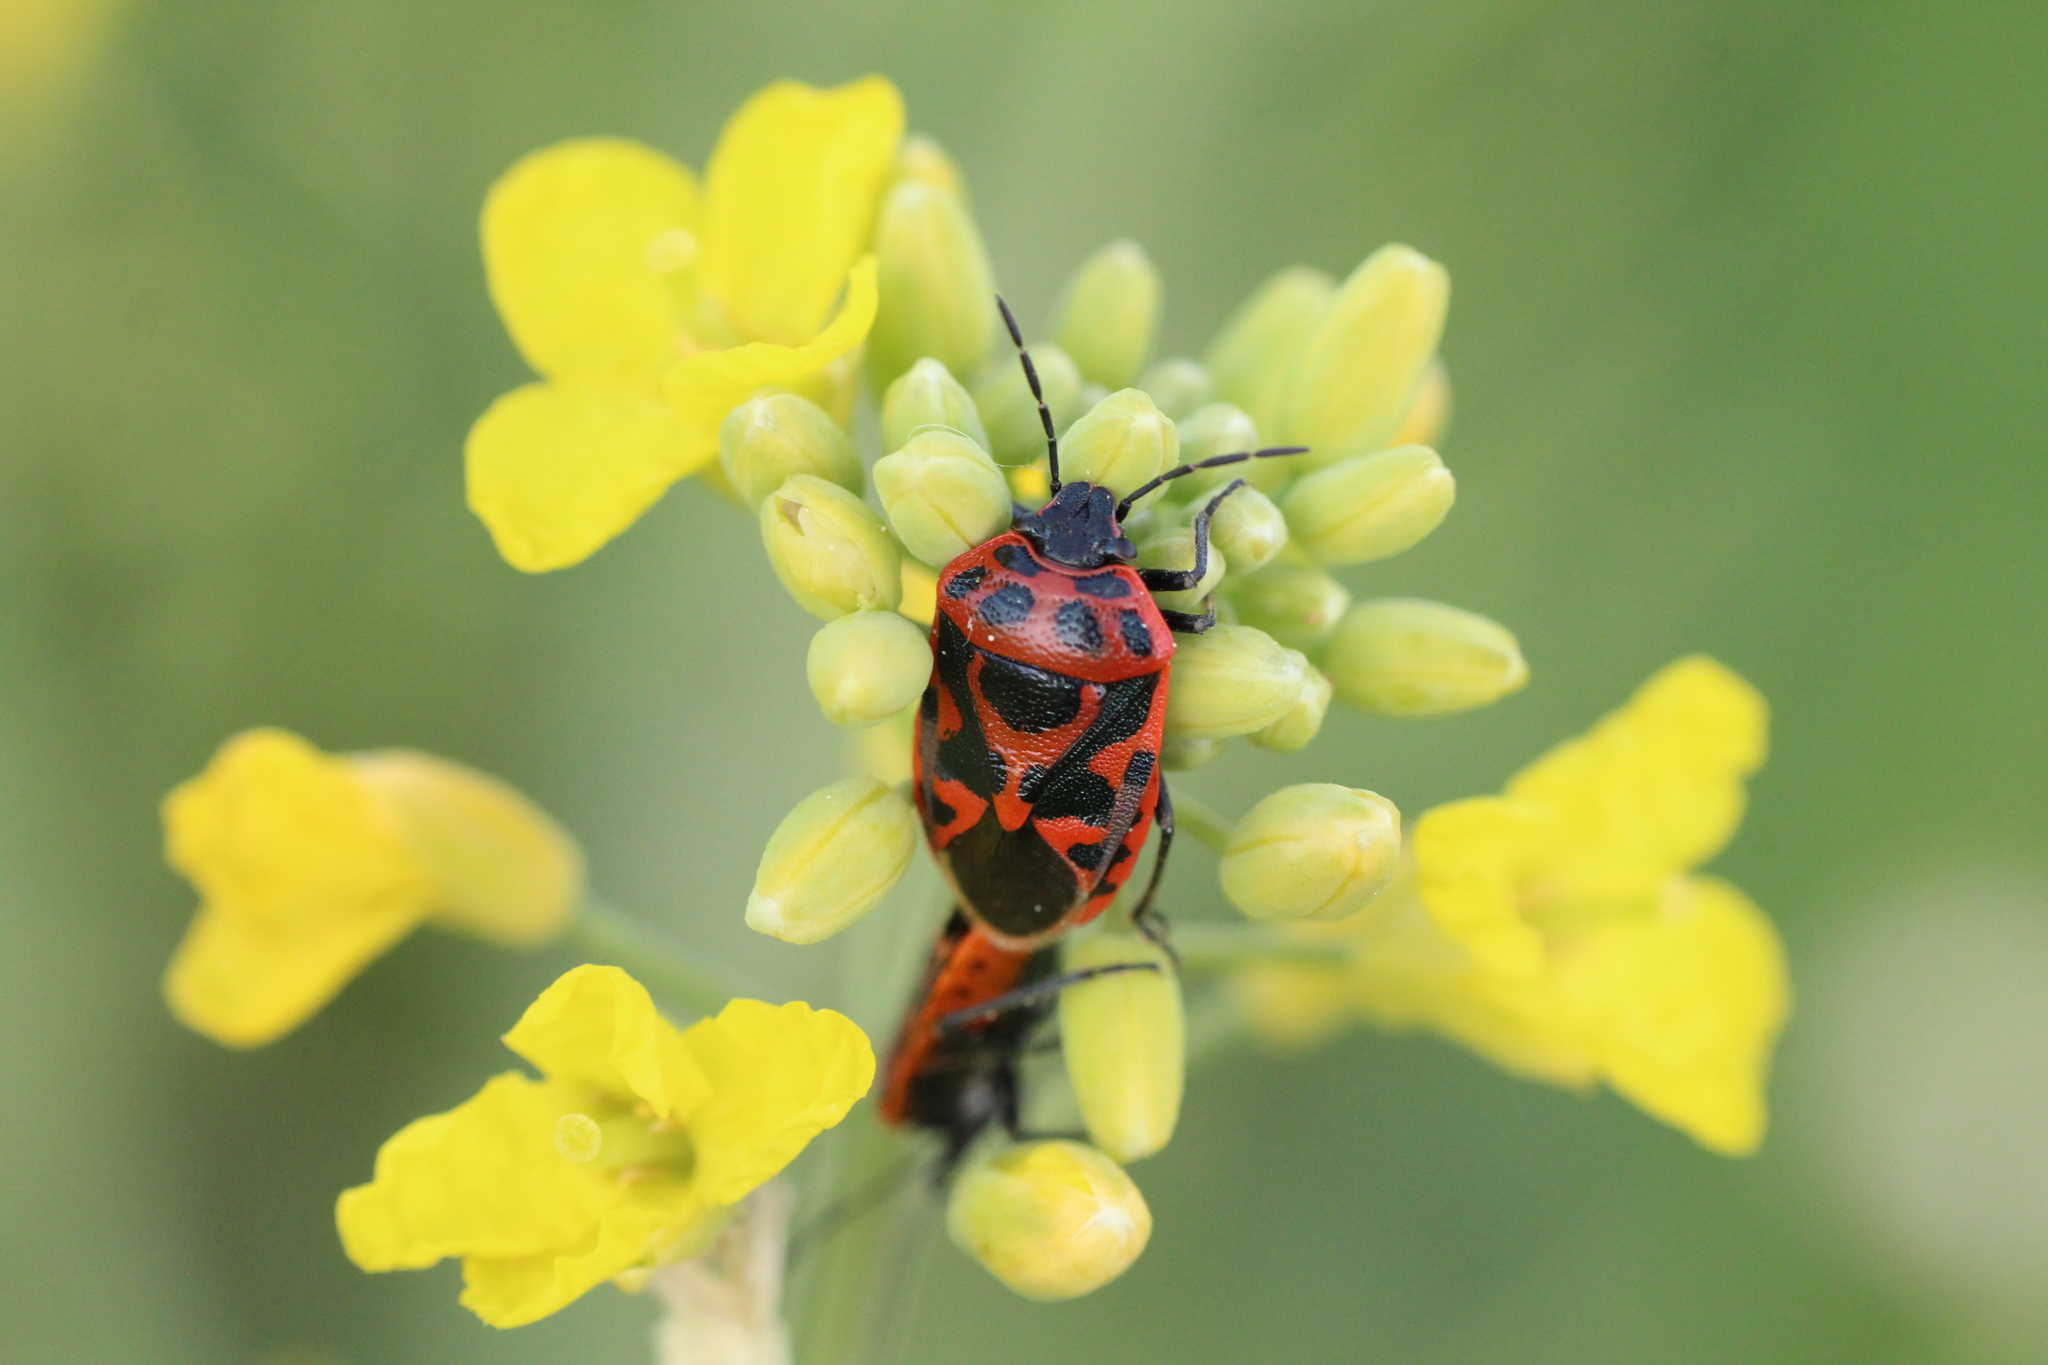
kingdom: Animalia
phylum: Arthropoda
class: Insecta
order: Hemiptera
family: Pentatomidae
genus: Eurydema
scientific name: Eurydema ornata
